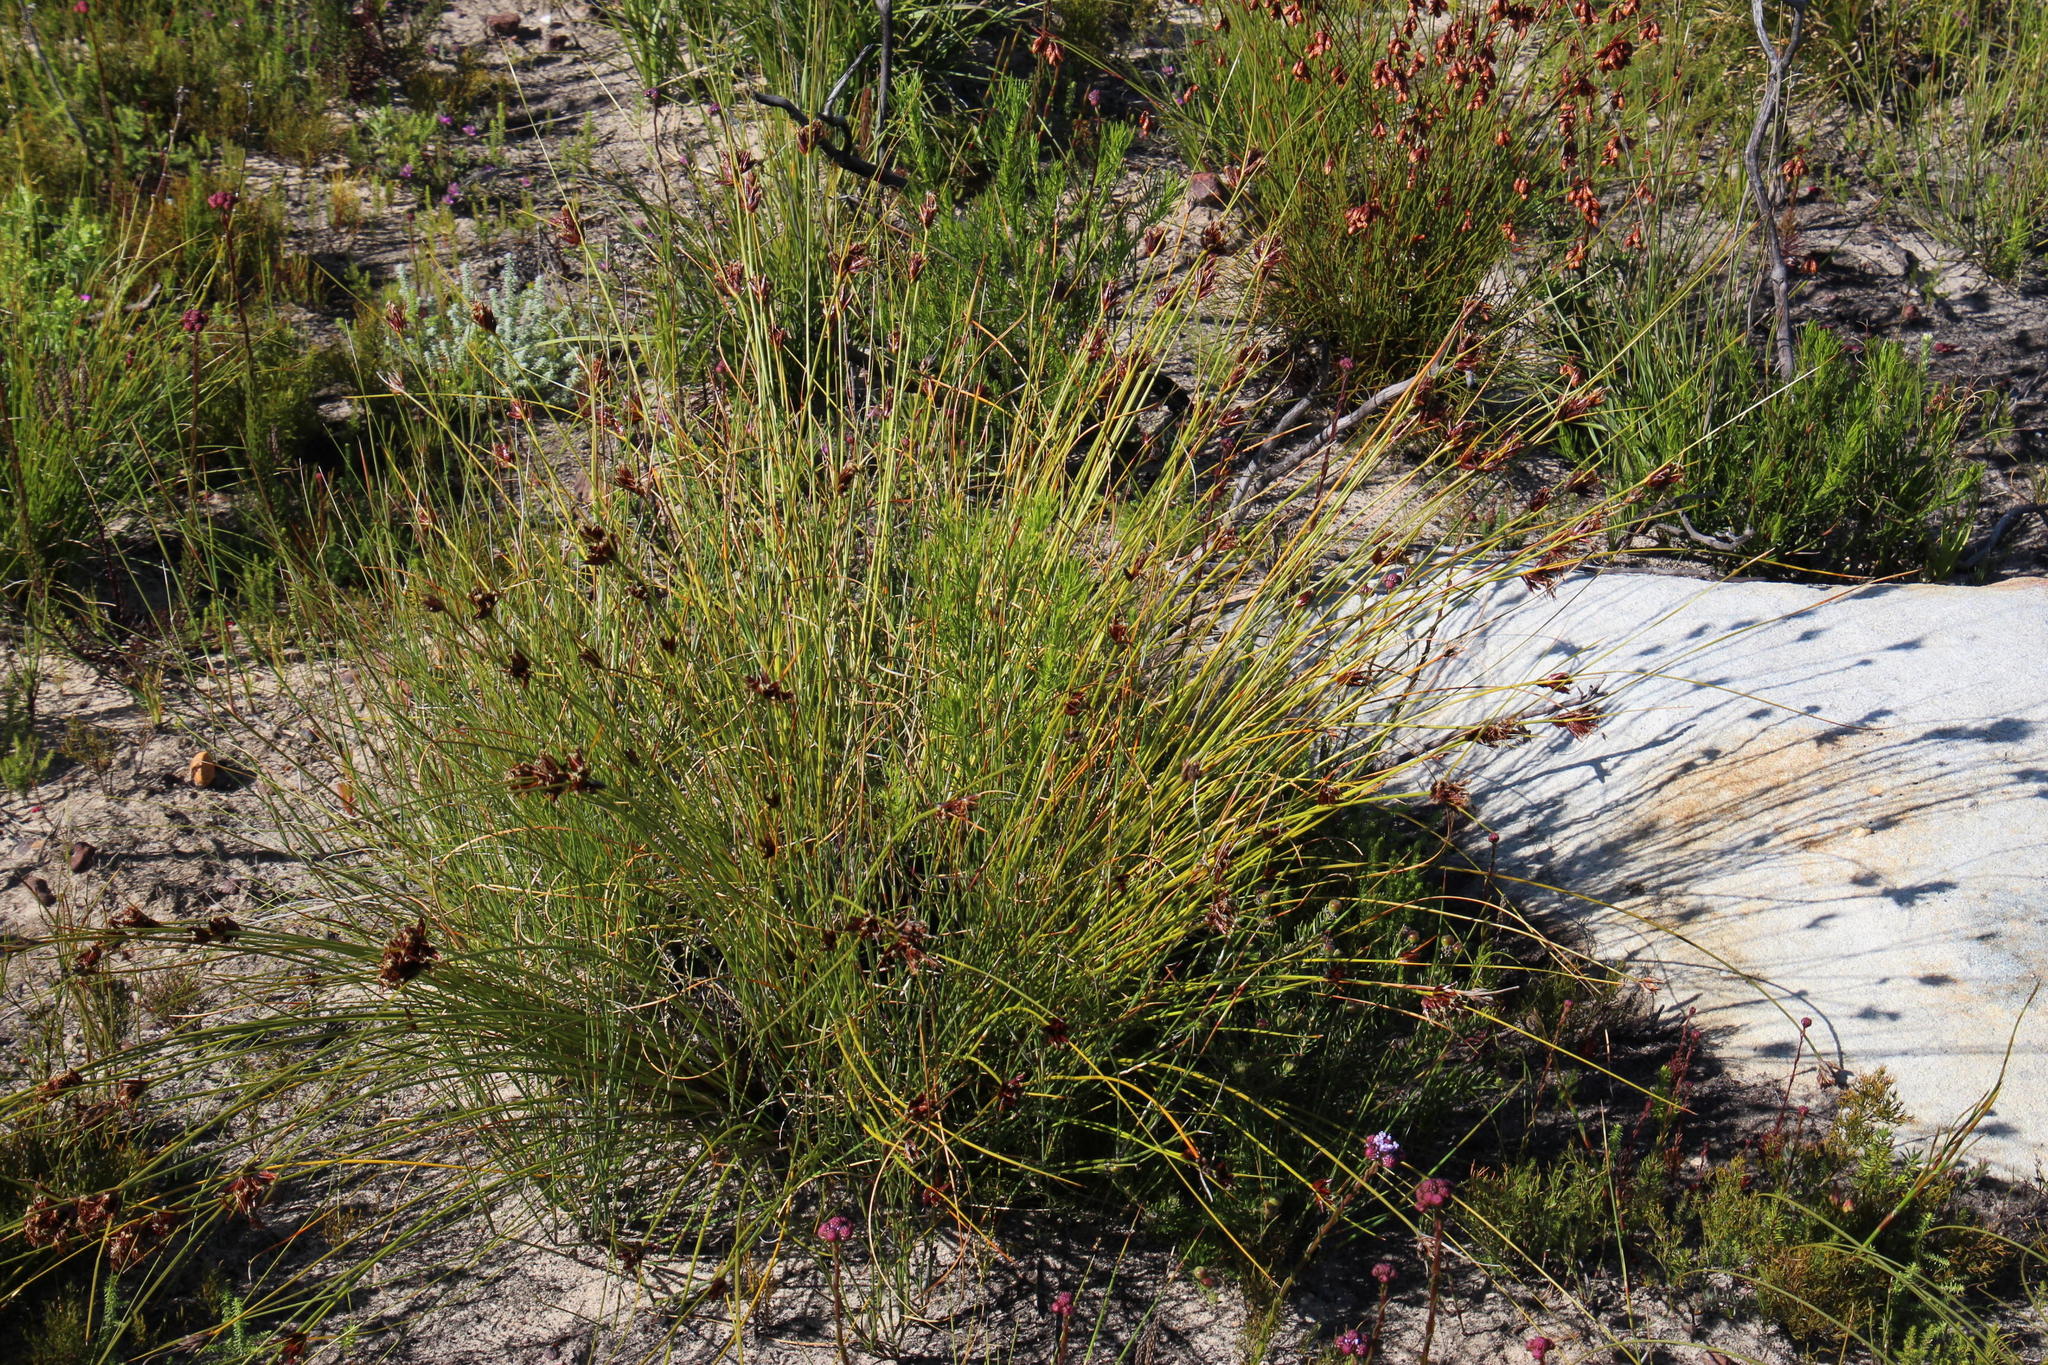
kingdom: Plantae
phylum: Tracheophyta
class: Liliopsida
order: Poales
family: Cyperaceae
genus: Schoenus
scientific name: Schoenus compar
